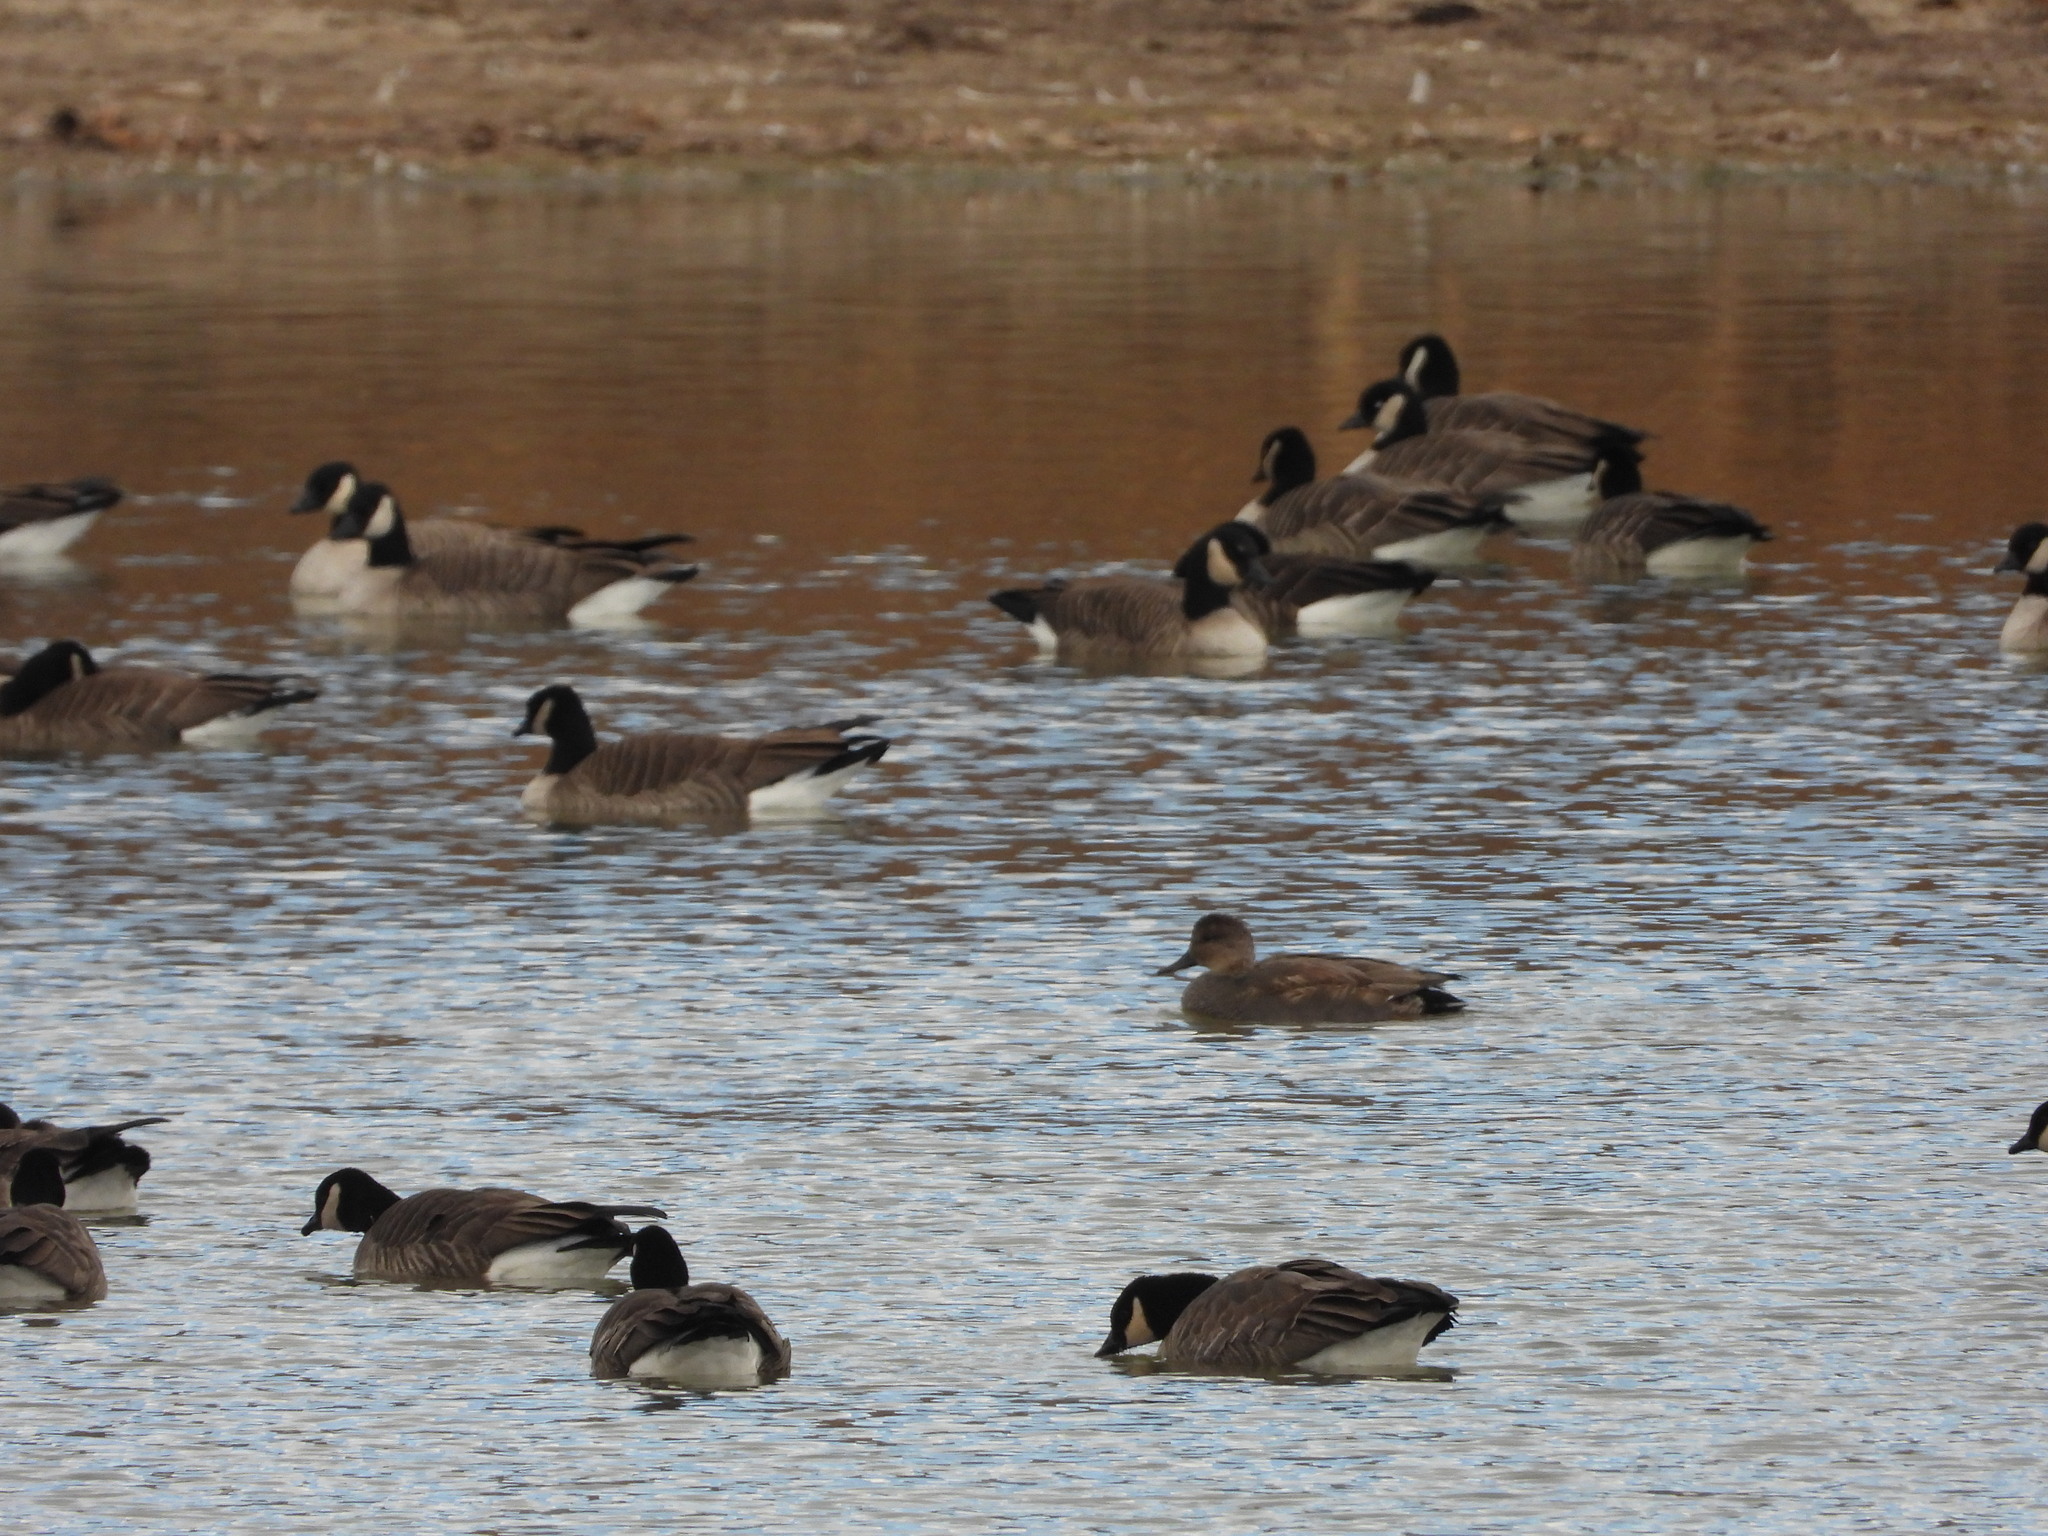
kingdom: Animalia
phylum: Chordata
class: Aves
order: Anseriformes
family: Anatidae
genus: Mareca
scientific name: Mareca strepera
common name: Gadwall
